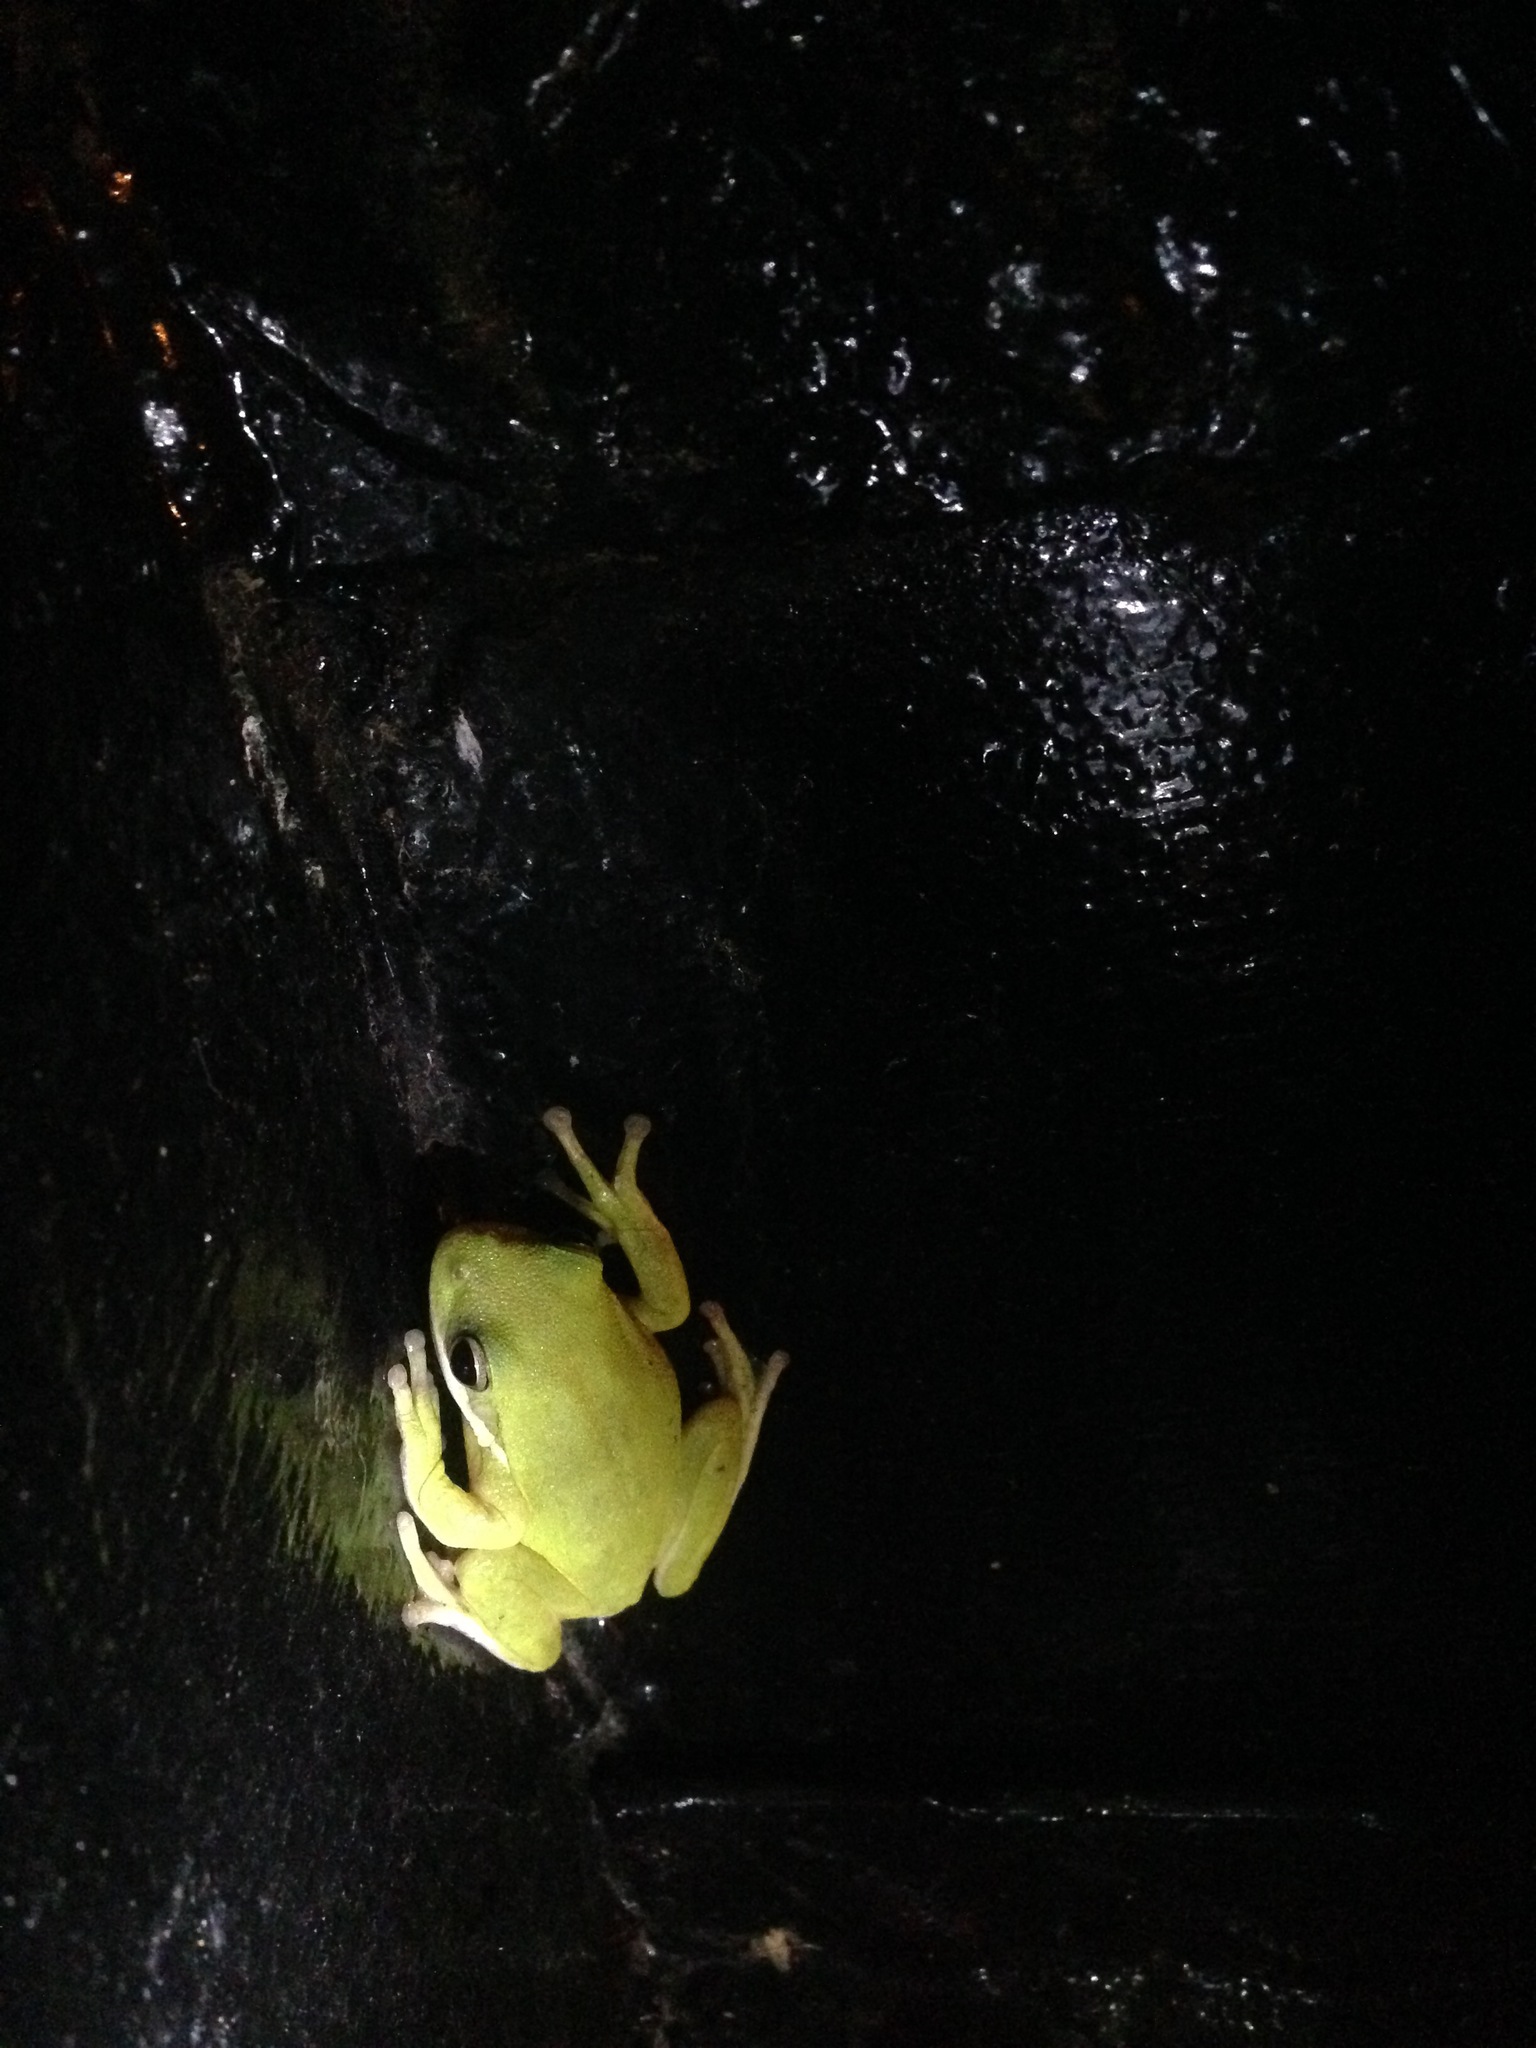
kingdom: Animalia
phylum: Chordata
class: Amphibia
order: Anura
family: Hylidae
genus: Dryophytes
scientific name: Dryophytes cinereus
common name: Green treefrog
